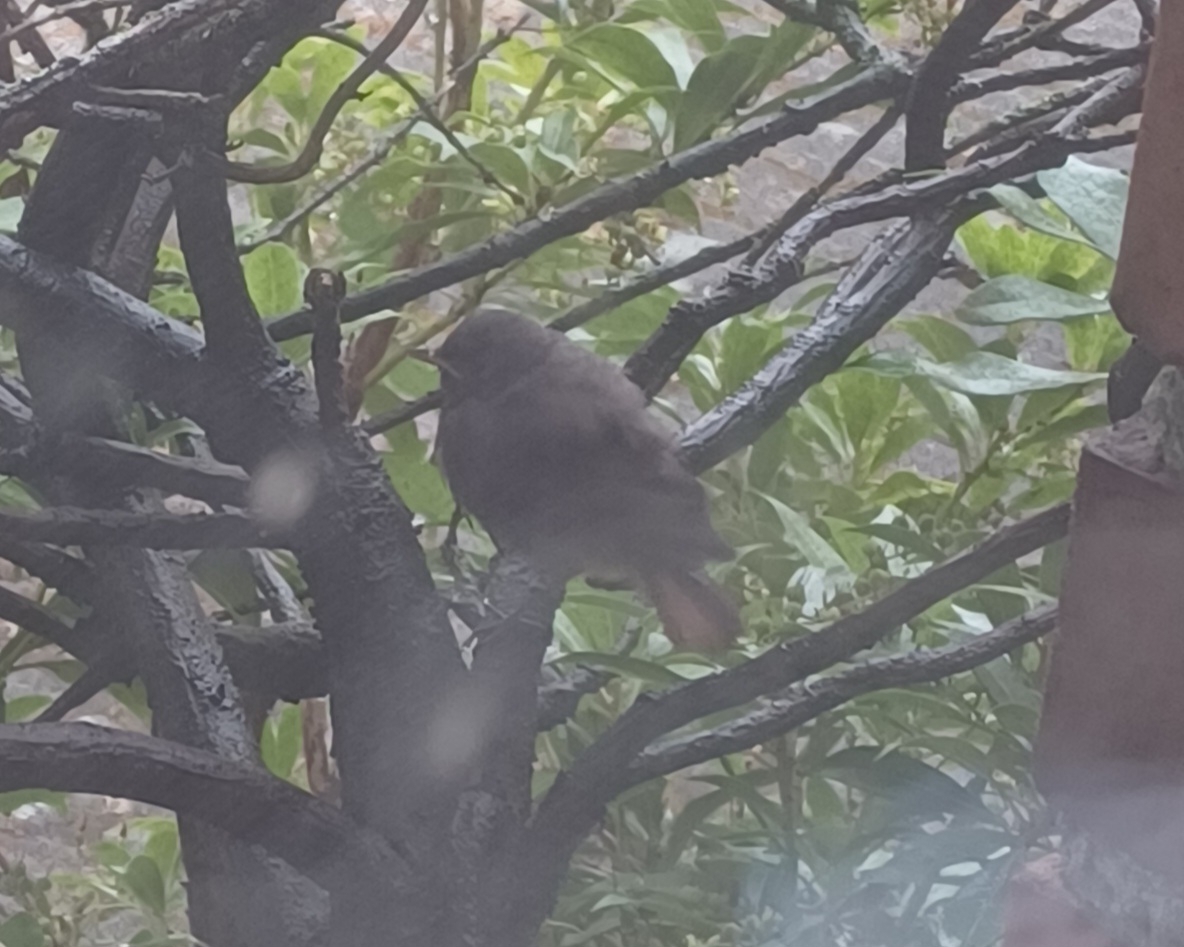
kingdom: Animalia
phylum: Chordata
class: Aves
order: Passeriformes
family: Muscicapidae
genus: Phoenicurus
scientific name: Phoenicurus ochruros
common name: Black redstart
